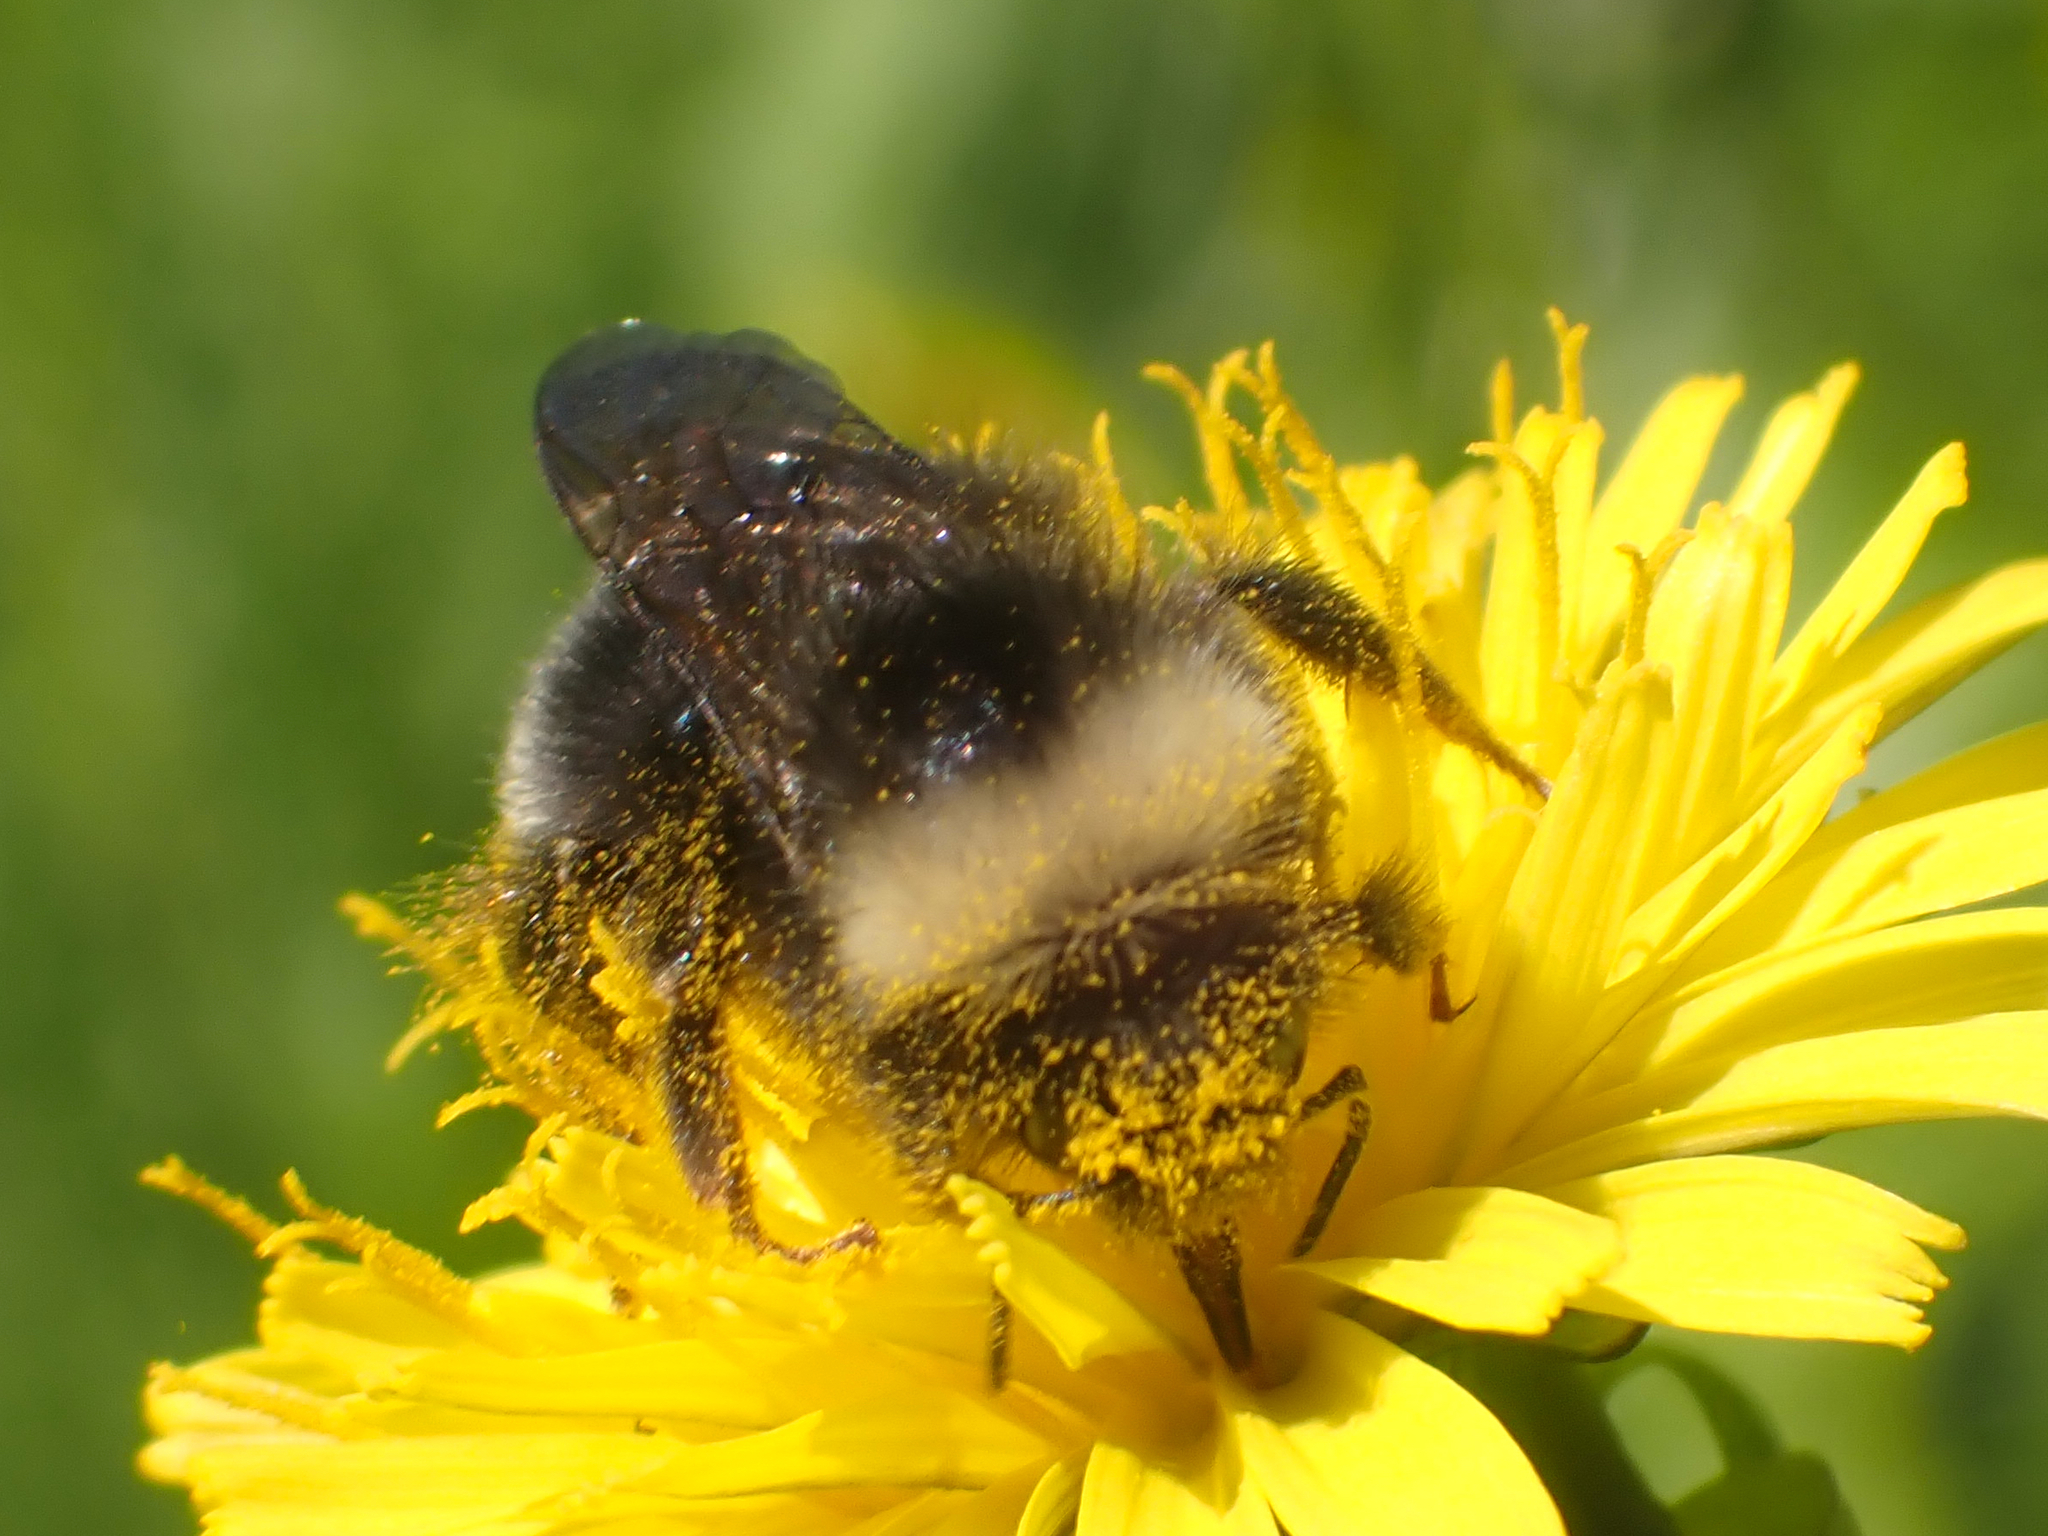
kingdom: Animalia
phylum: Arthropoda
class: Insecta
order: Hymenoptera
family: Apidae
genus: Bombus
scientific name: Bombus mckayi
